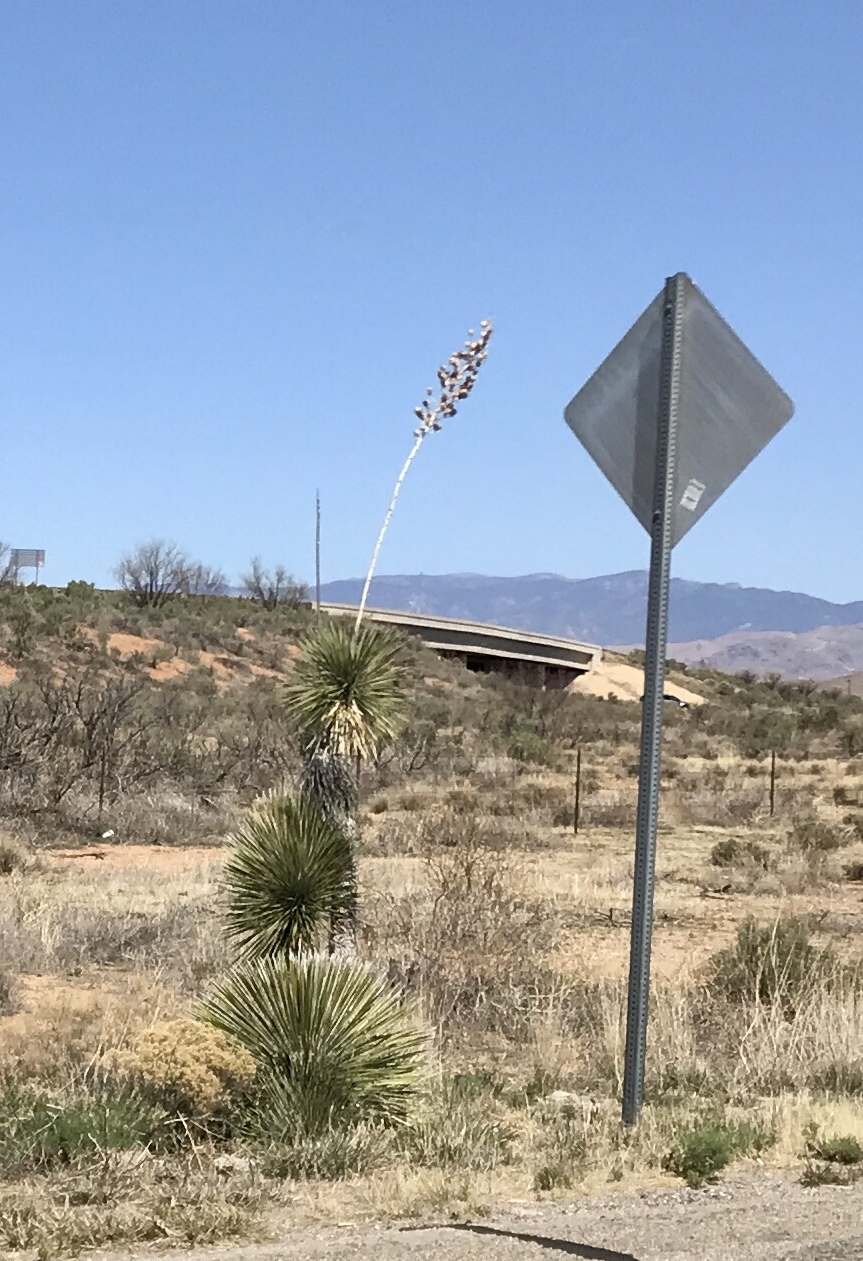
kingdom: Plantae
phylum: Tracheophyta
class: Liliopsida
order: Asparagales
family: Asparagaceae
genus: Yucca
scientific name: Yucca elata
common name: Palmella
